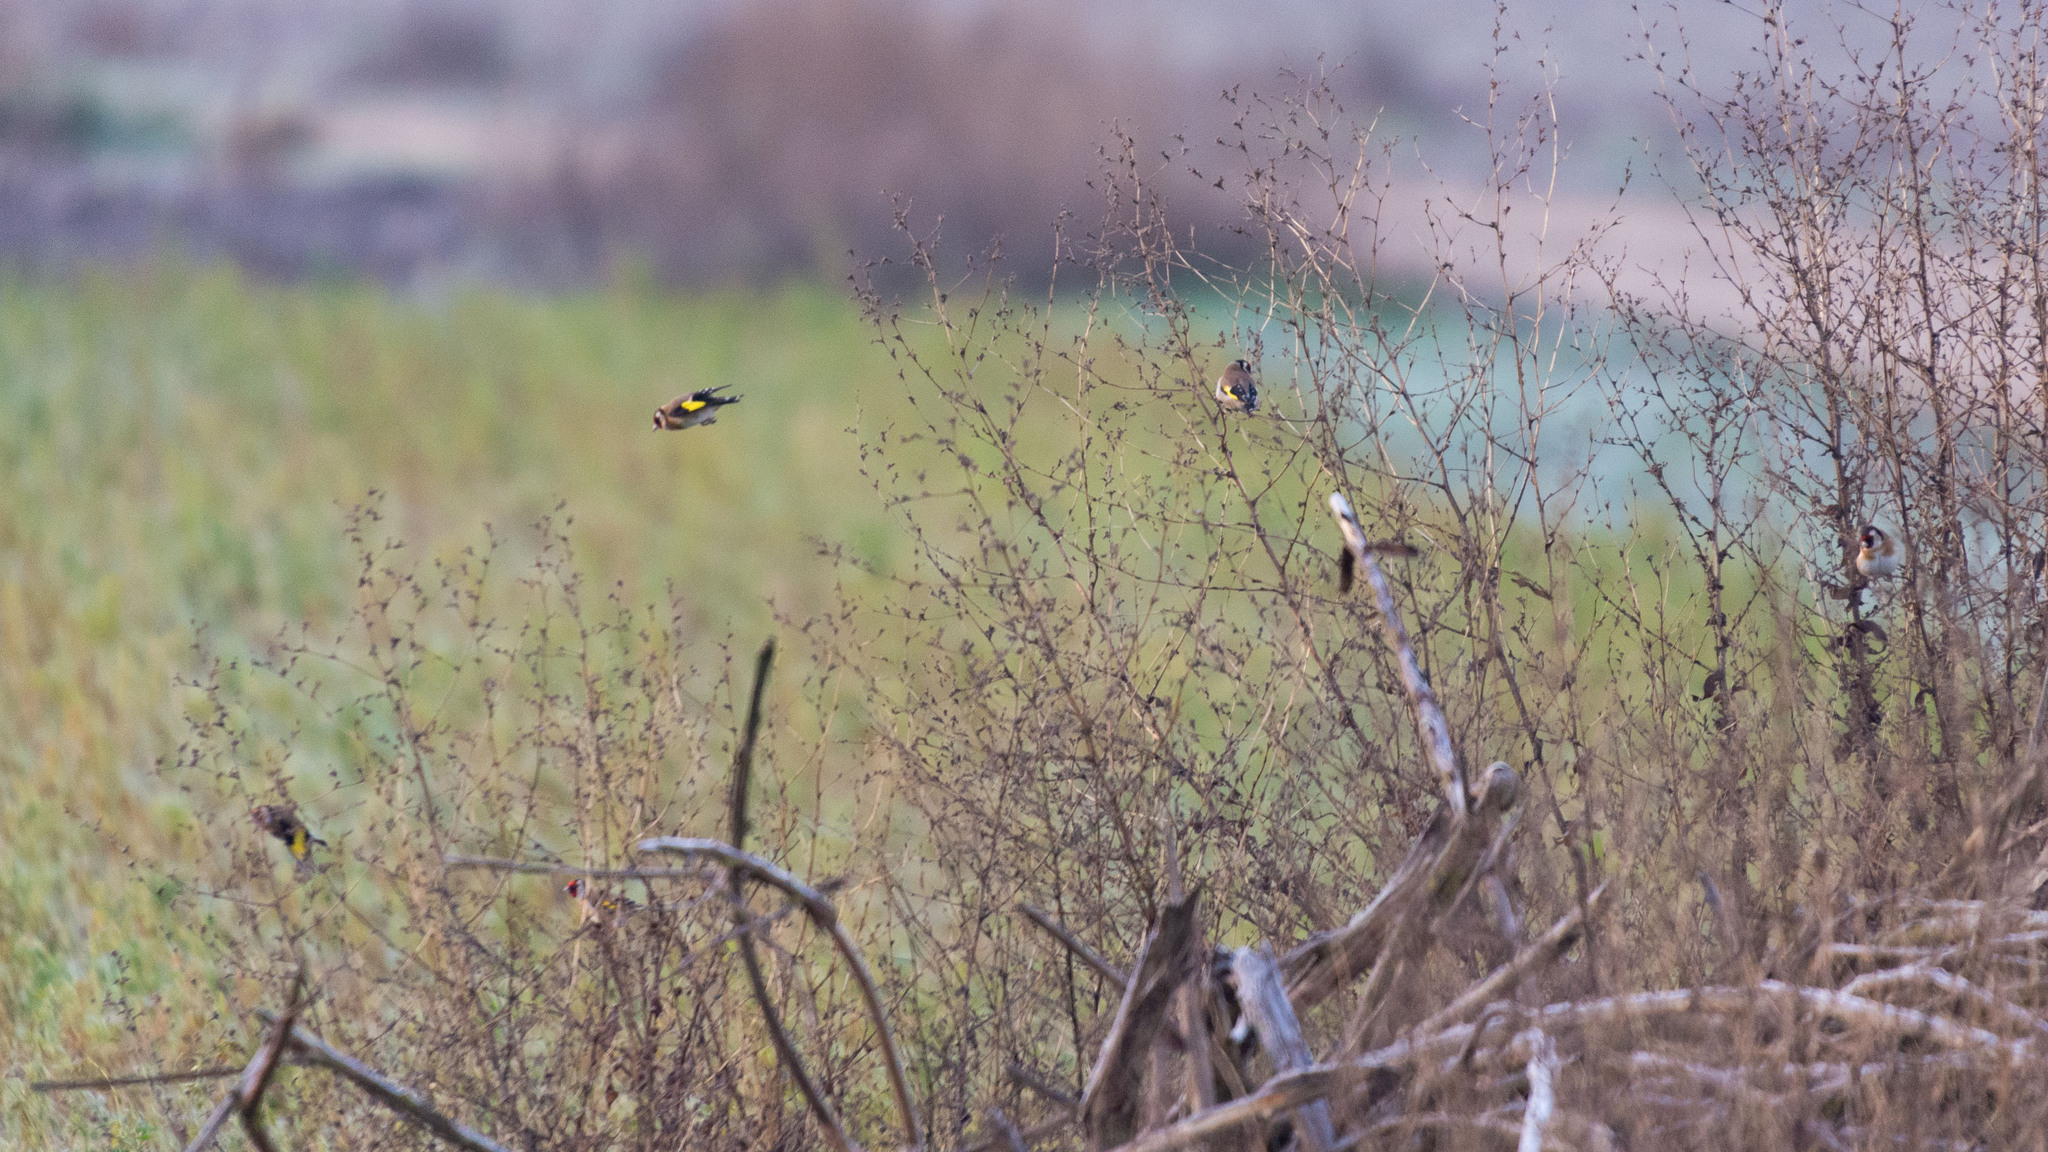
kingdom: Animalia
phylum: Chordata
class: Aves
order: Passeriformes
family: Fringillidae
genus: Carduelis
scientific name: Carduelis carduelis
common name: European goldfinch
